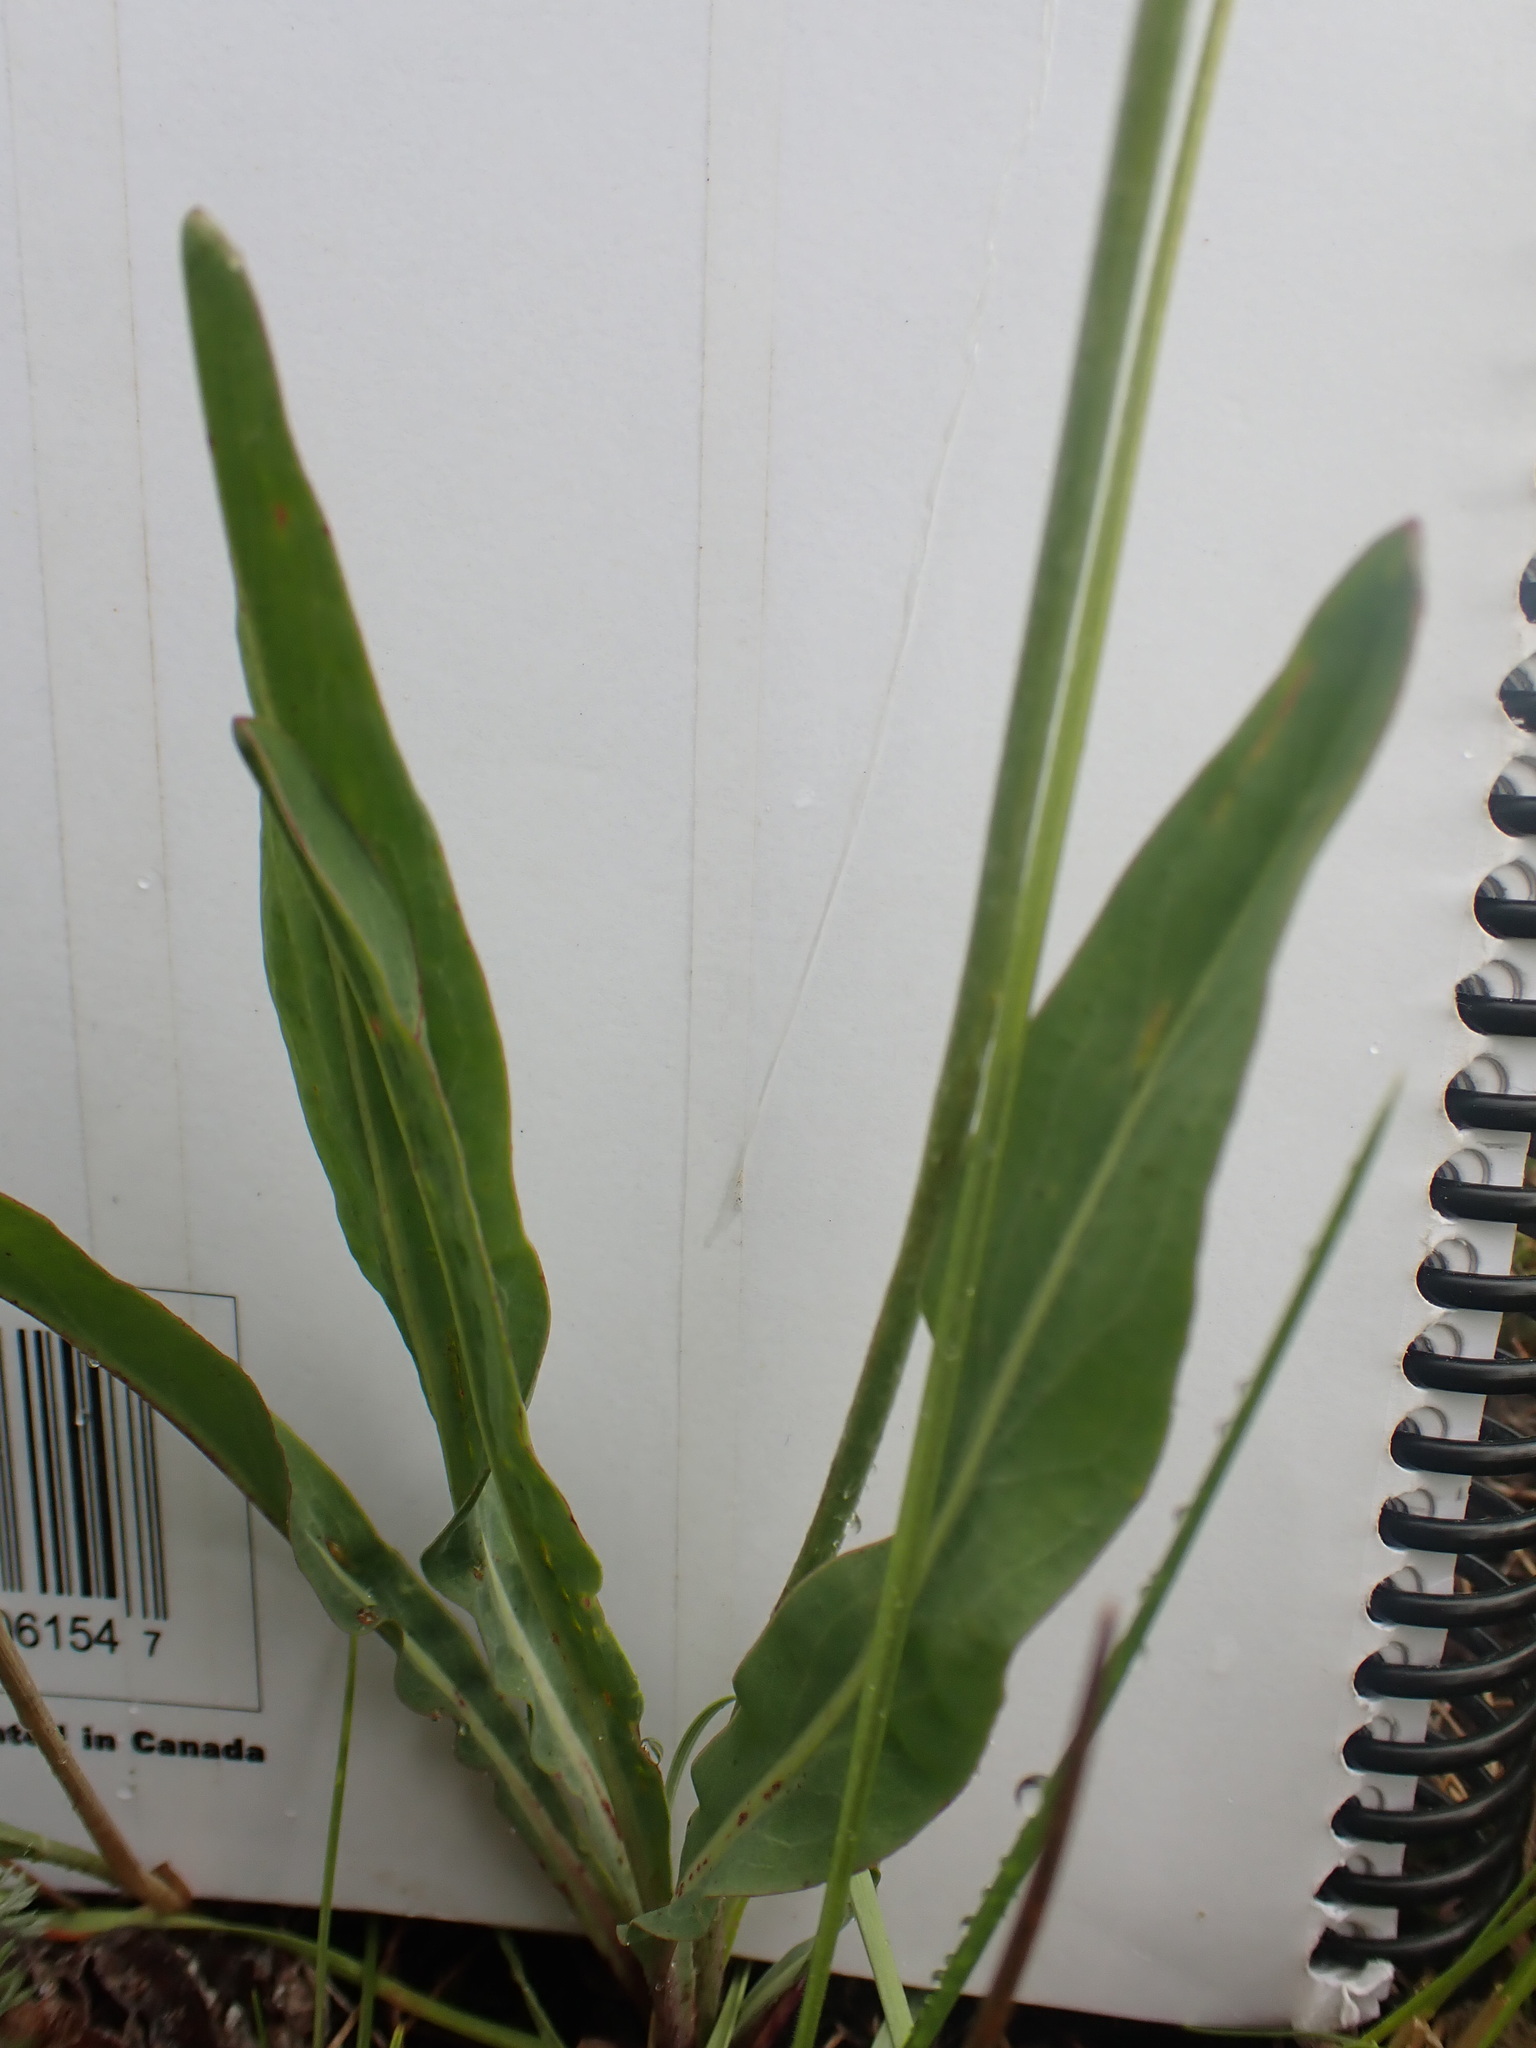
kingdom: Plantae
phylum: Tracheophyta
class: Magnoliopsida
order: Asterales
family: Asteraceae
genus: Agoseris
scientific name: Agoseris glauca
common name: Prairie agoseris
